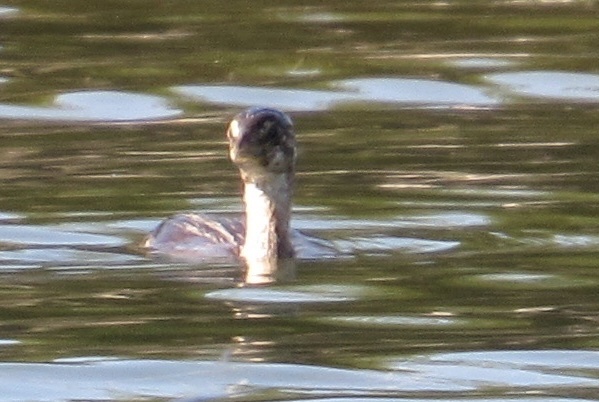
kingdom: Animalia
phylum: Chordata
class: Aves
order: Podicipediformes
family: Podicipedidae
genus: Podilymbus
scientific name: Podilymbus podiceps
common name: Pied-billed grebe
